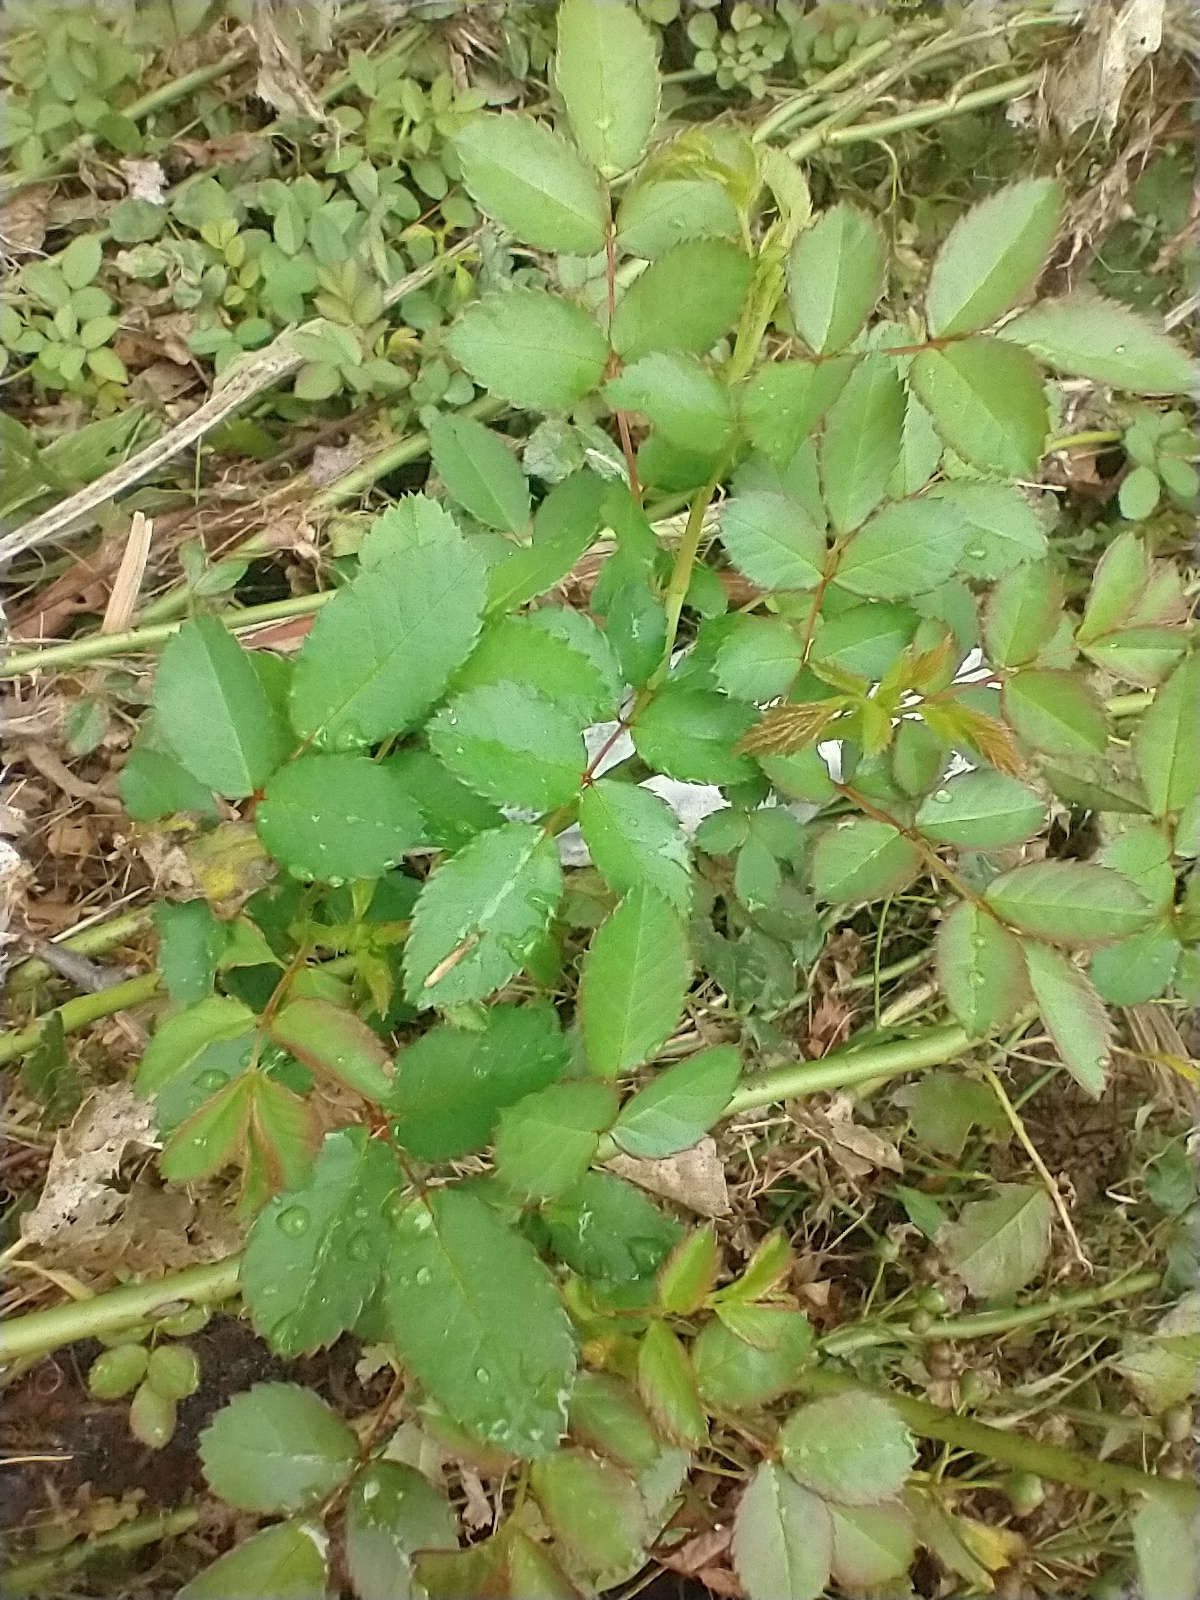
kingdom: Plantae
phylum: Tracheophyta
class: Magnoliopsida
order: Rosales
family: Rosaceae
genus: Rosa
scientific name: Rosa multiflora
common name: Multiflora rose
